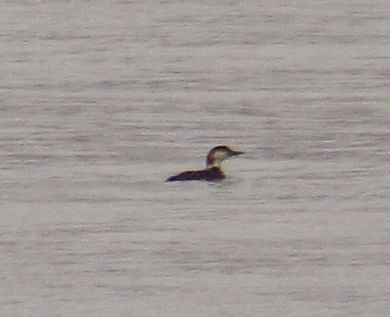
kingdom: Animalia
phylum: Chordata
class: Aves
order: Gaviiformes
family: Gaviidae
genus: Gavia
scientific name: Gavia immer
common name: Common loon
